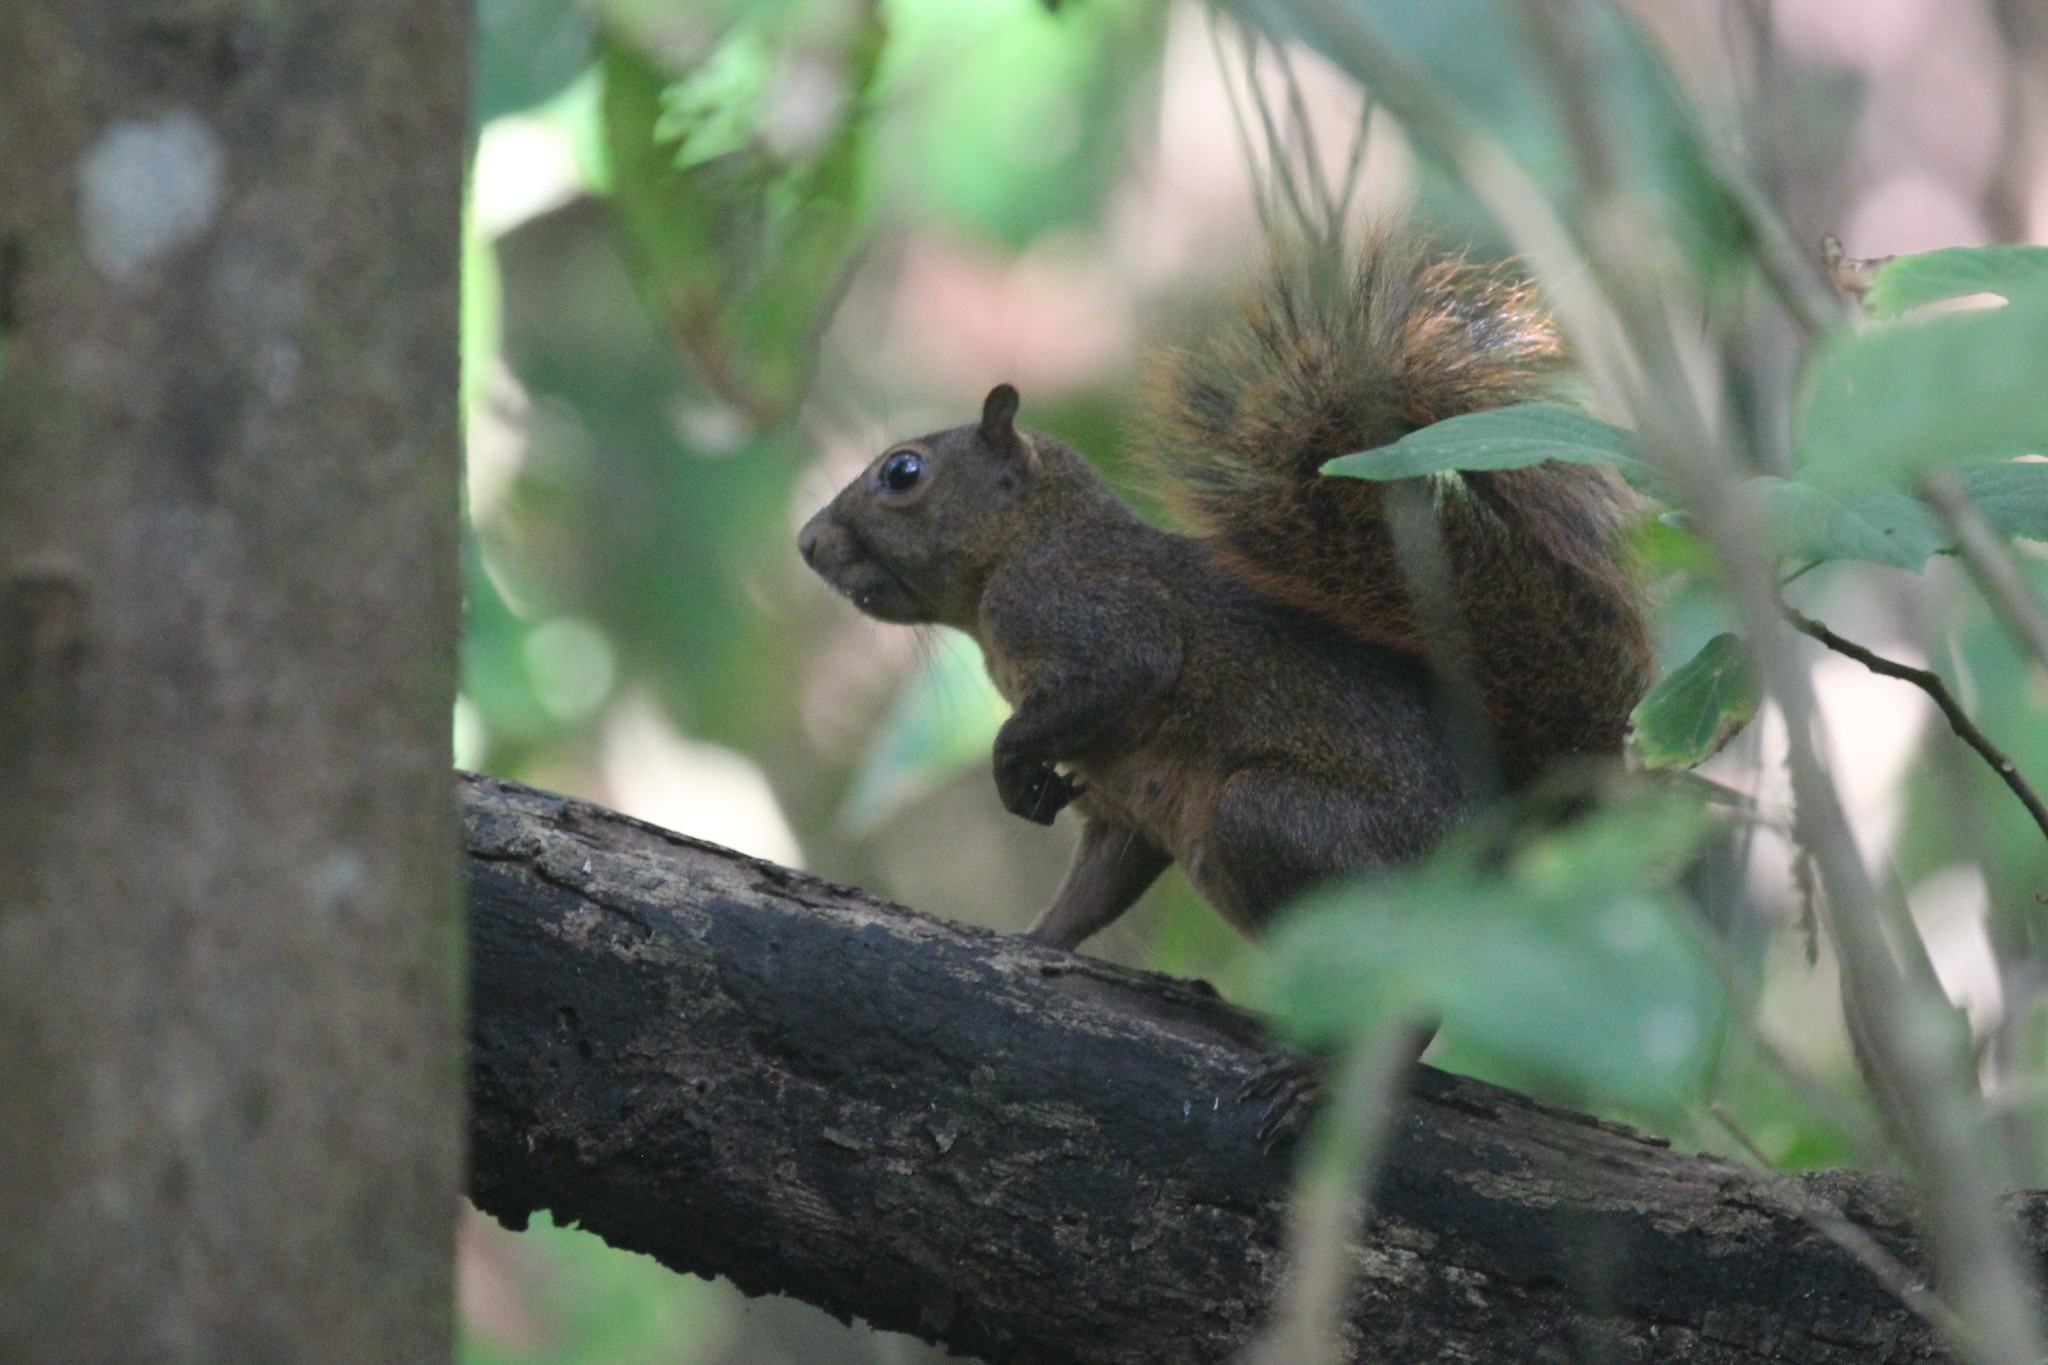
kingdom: Animalia
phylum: Chordata
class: Mammalia
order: Rodentia
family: Sciuridae
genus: Sciurus
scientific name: Sciurus granatensis
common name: Red-tailed squirrel
